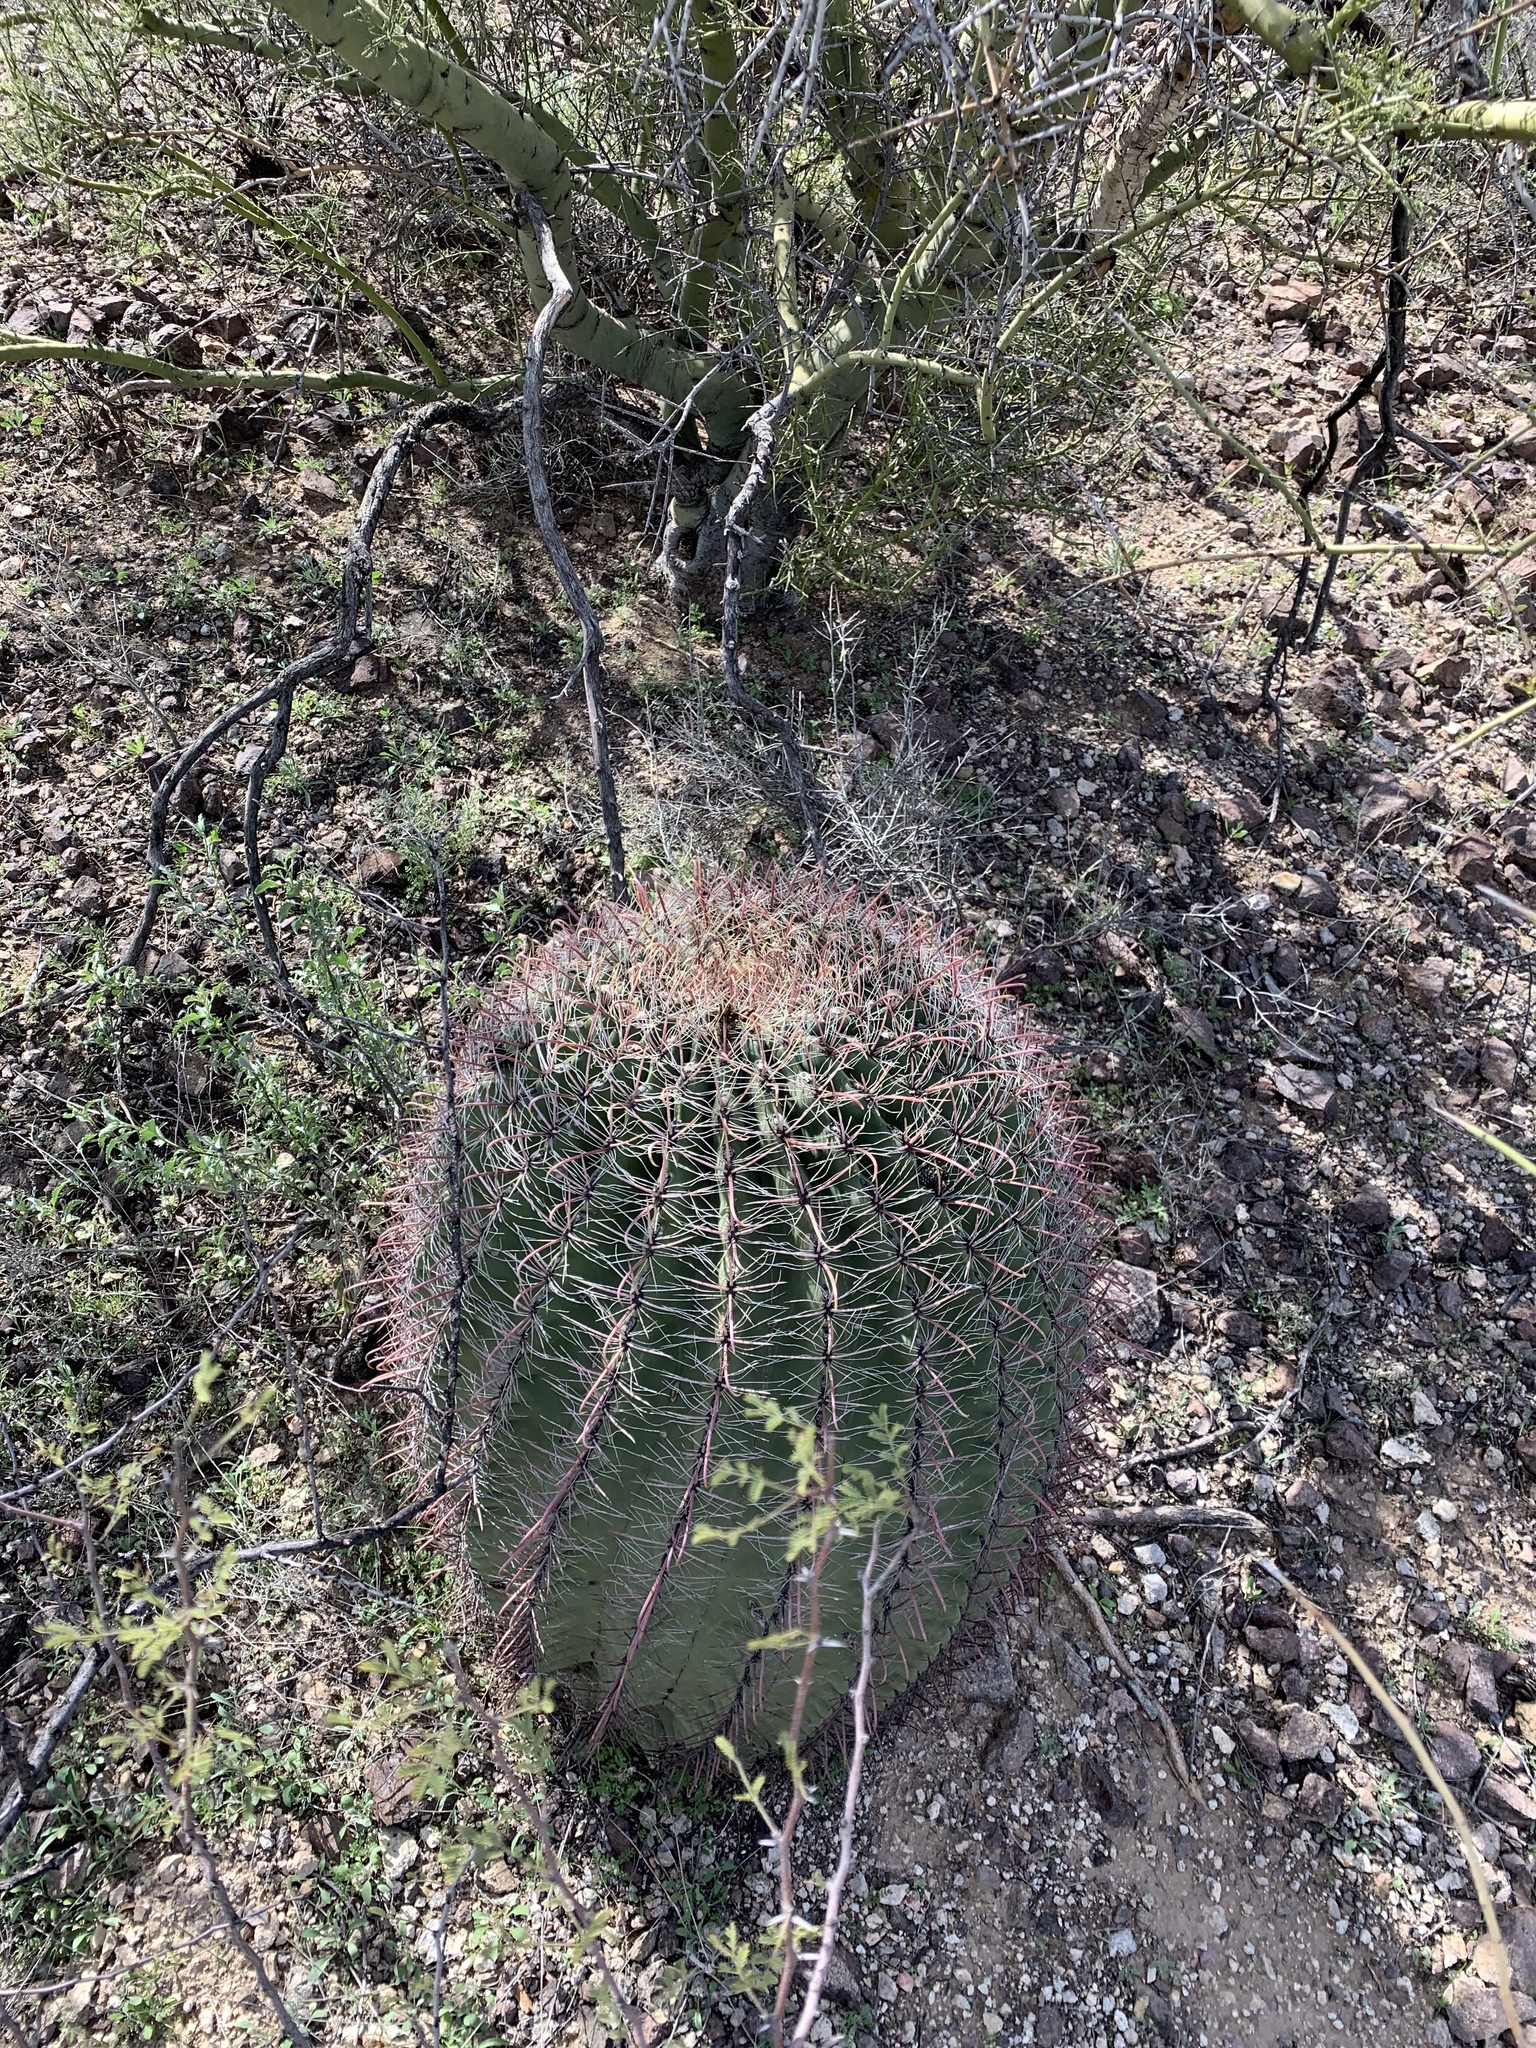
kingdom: Plantae
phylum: Tracheophyta
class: Magnoliopsida
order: Caryophyllales
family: Cactaceae
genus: Ferocactus
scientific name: Ferocactus wislizeni
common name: Candy barrel cactus
